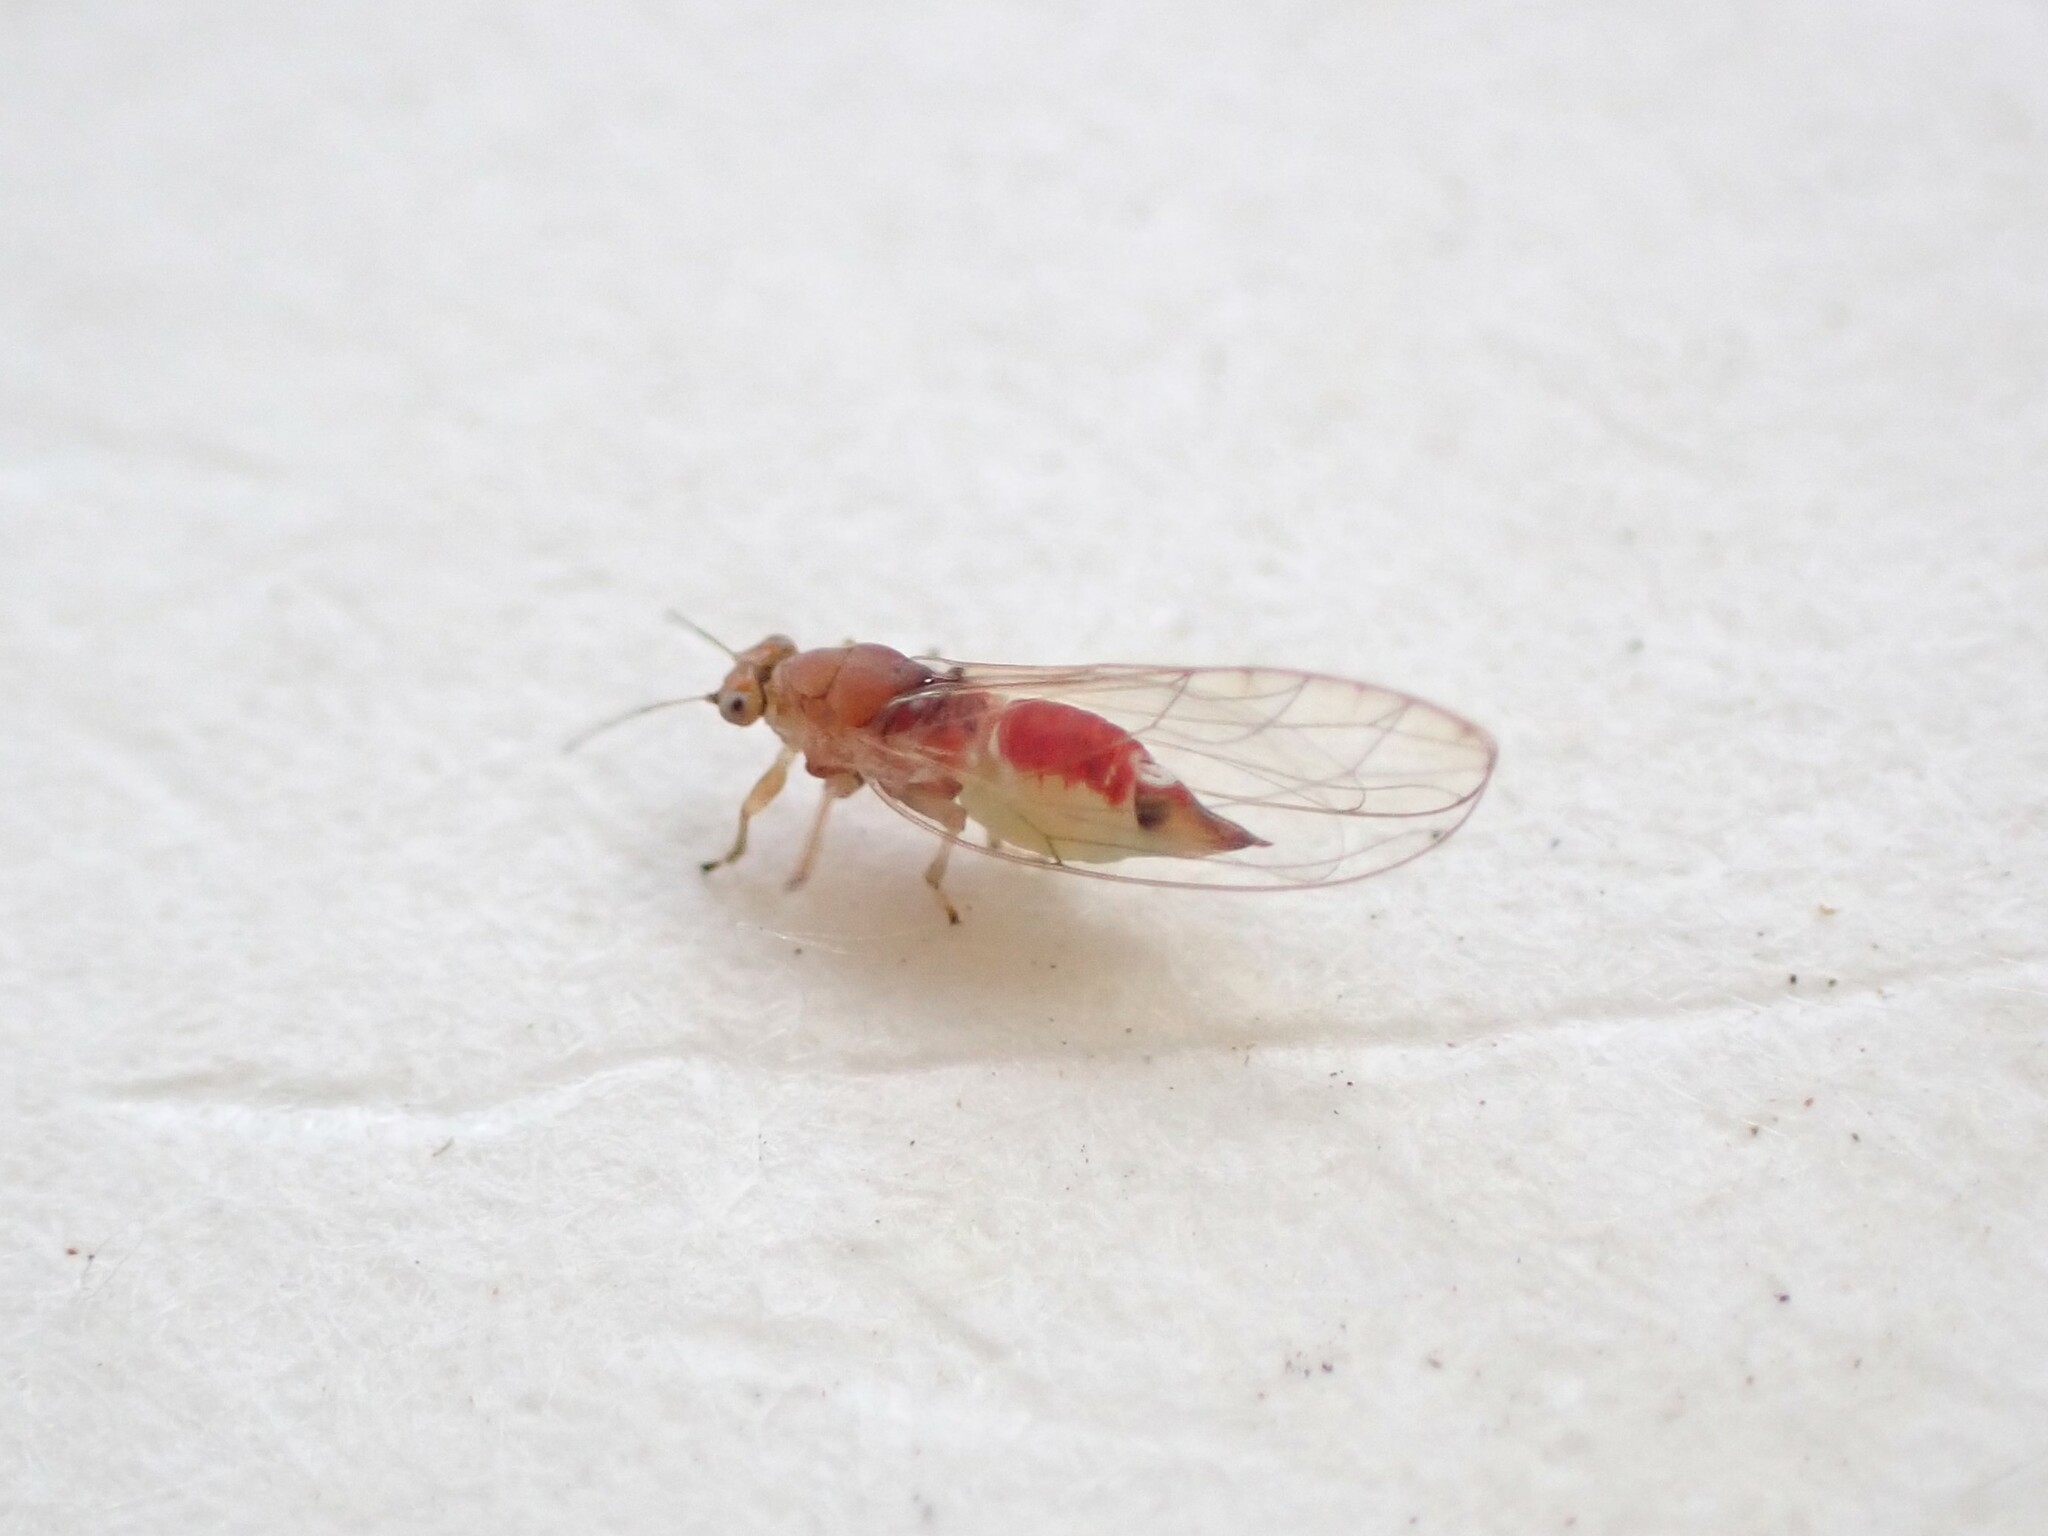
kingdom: Animalia
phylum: Arthropoda
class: Insecta
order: Hemiptera
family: Triozidae
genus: Powellia
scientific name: Powellia vitreoradiata
